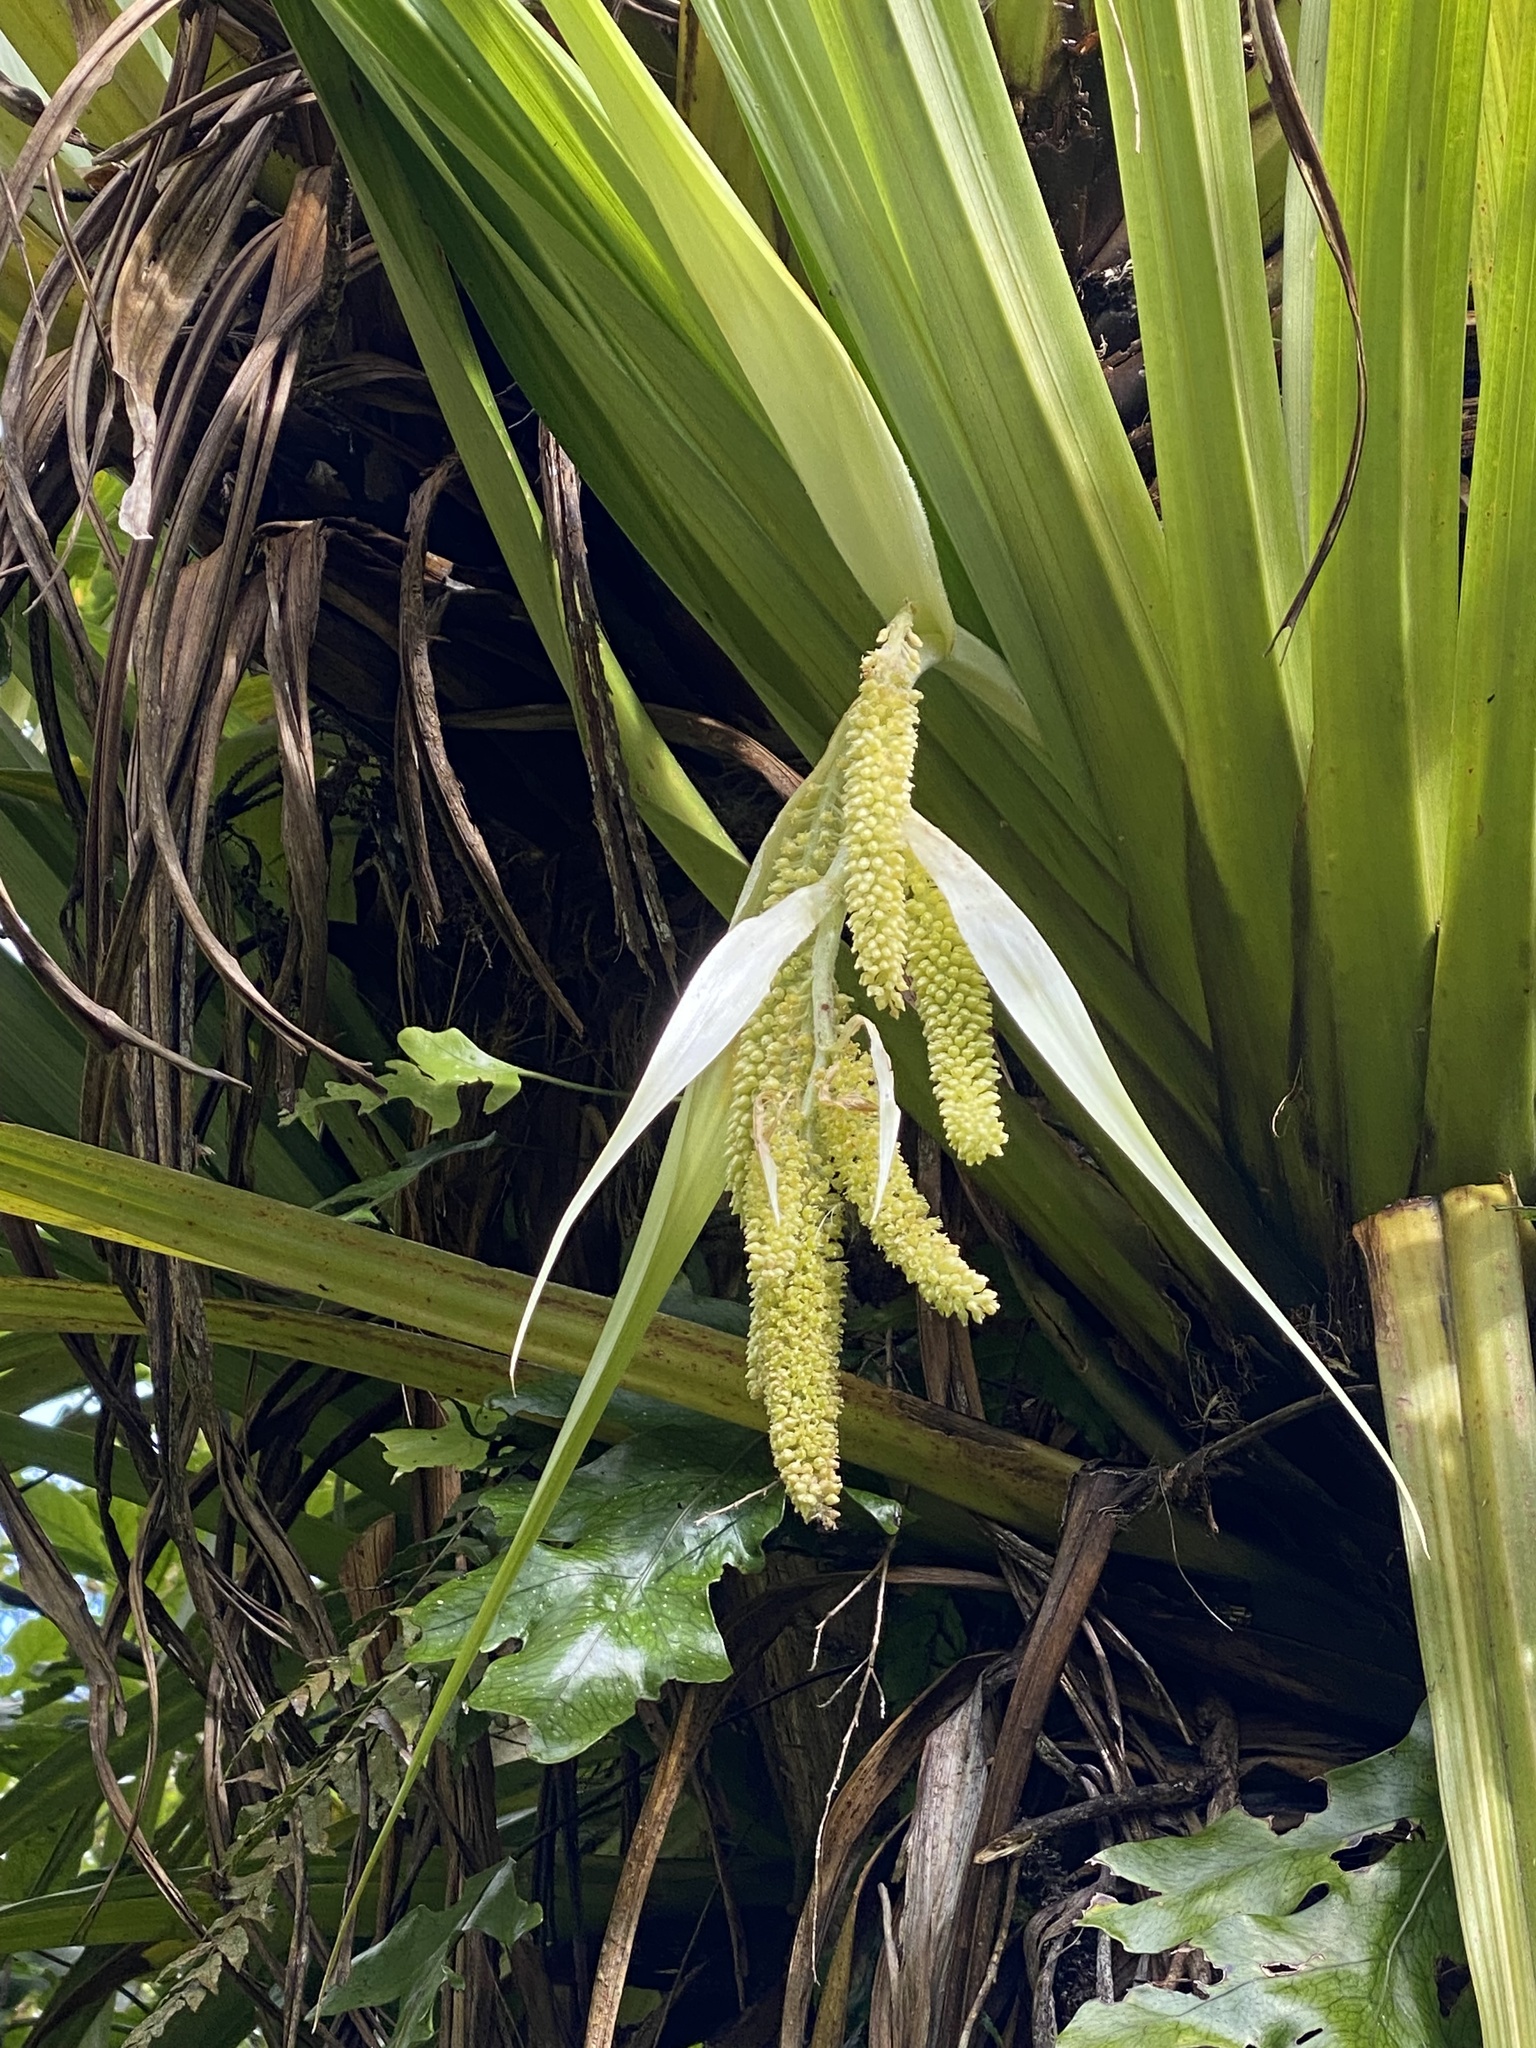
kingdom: Plantae
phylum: Tracheophyta
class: Liliopsida
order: Asparagales
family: Asteliaceae
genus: Astelia
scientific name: Astelia hastata
